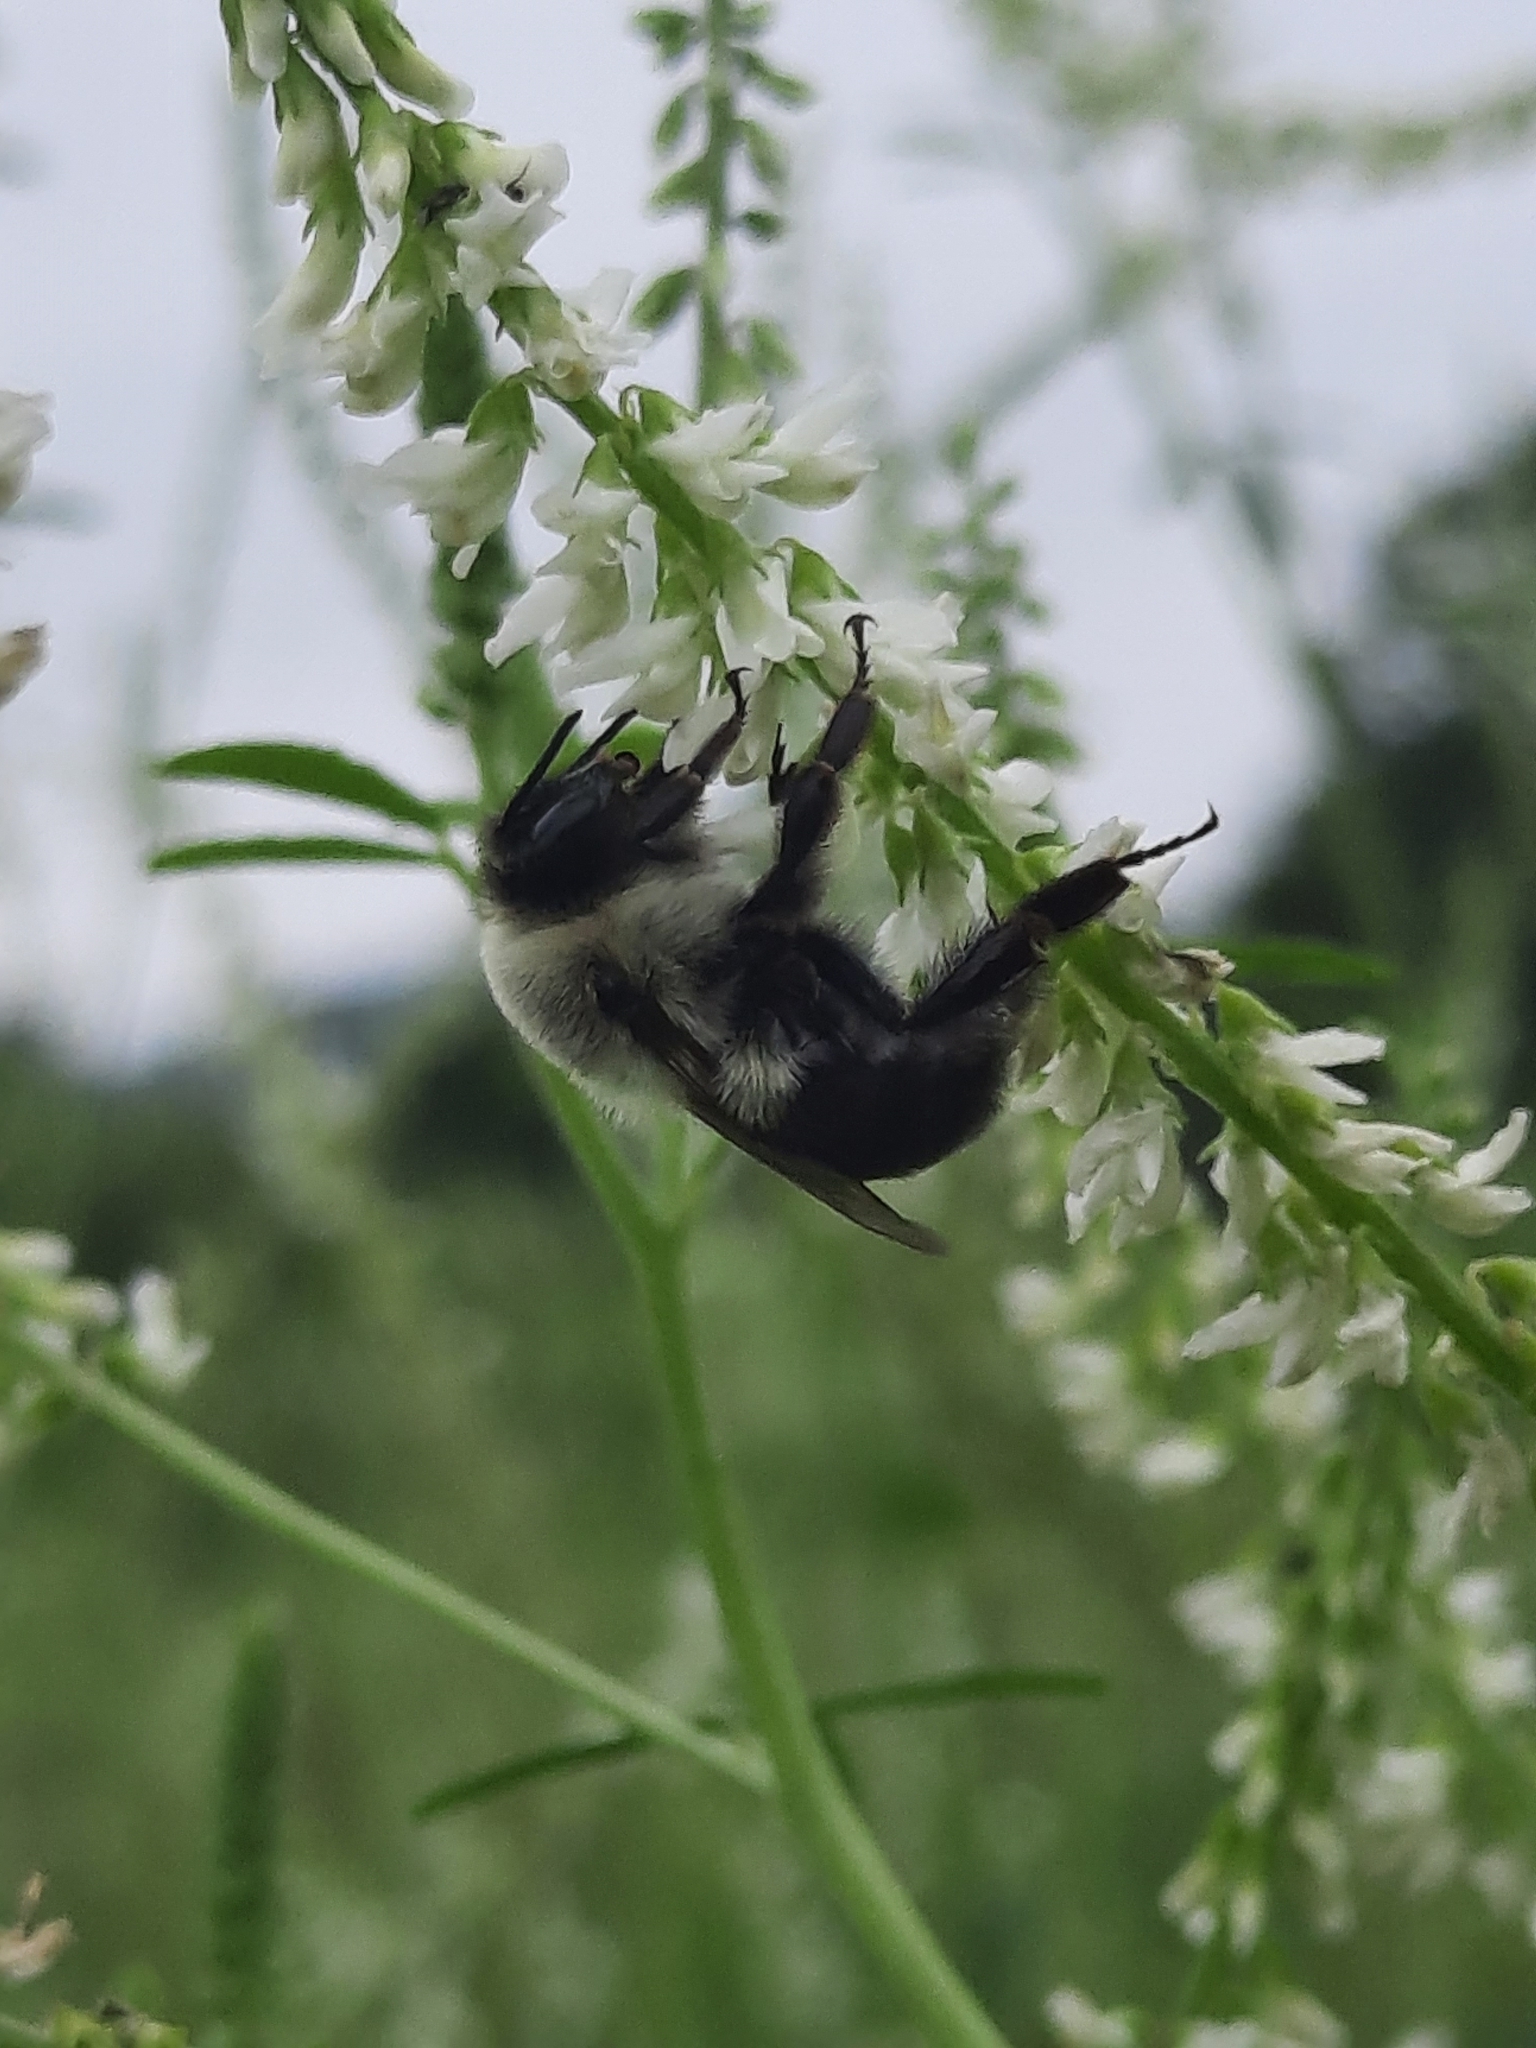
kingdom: Animalia
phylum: Arthropoda
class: Insecta
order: Hymenoptera
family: Apidae
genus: Bombus
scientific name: Bombus impatiens
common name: Common eastern bumble bee
